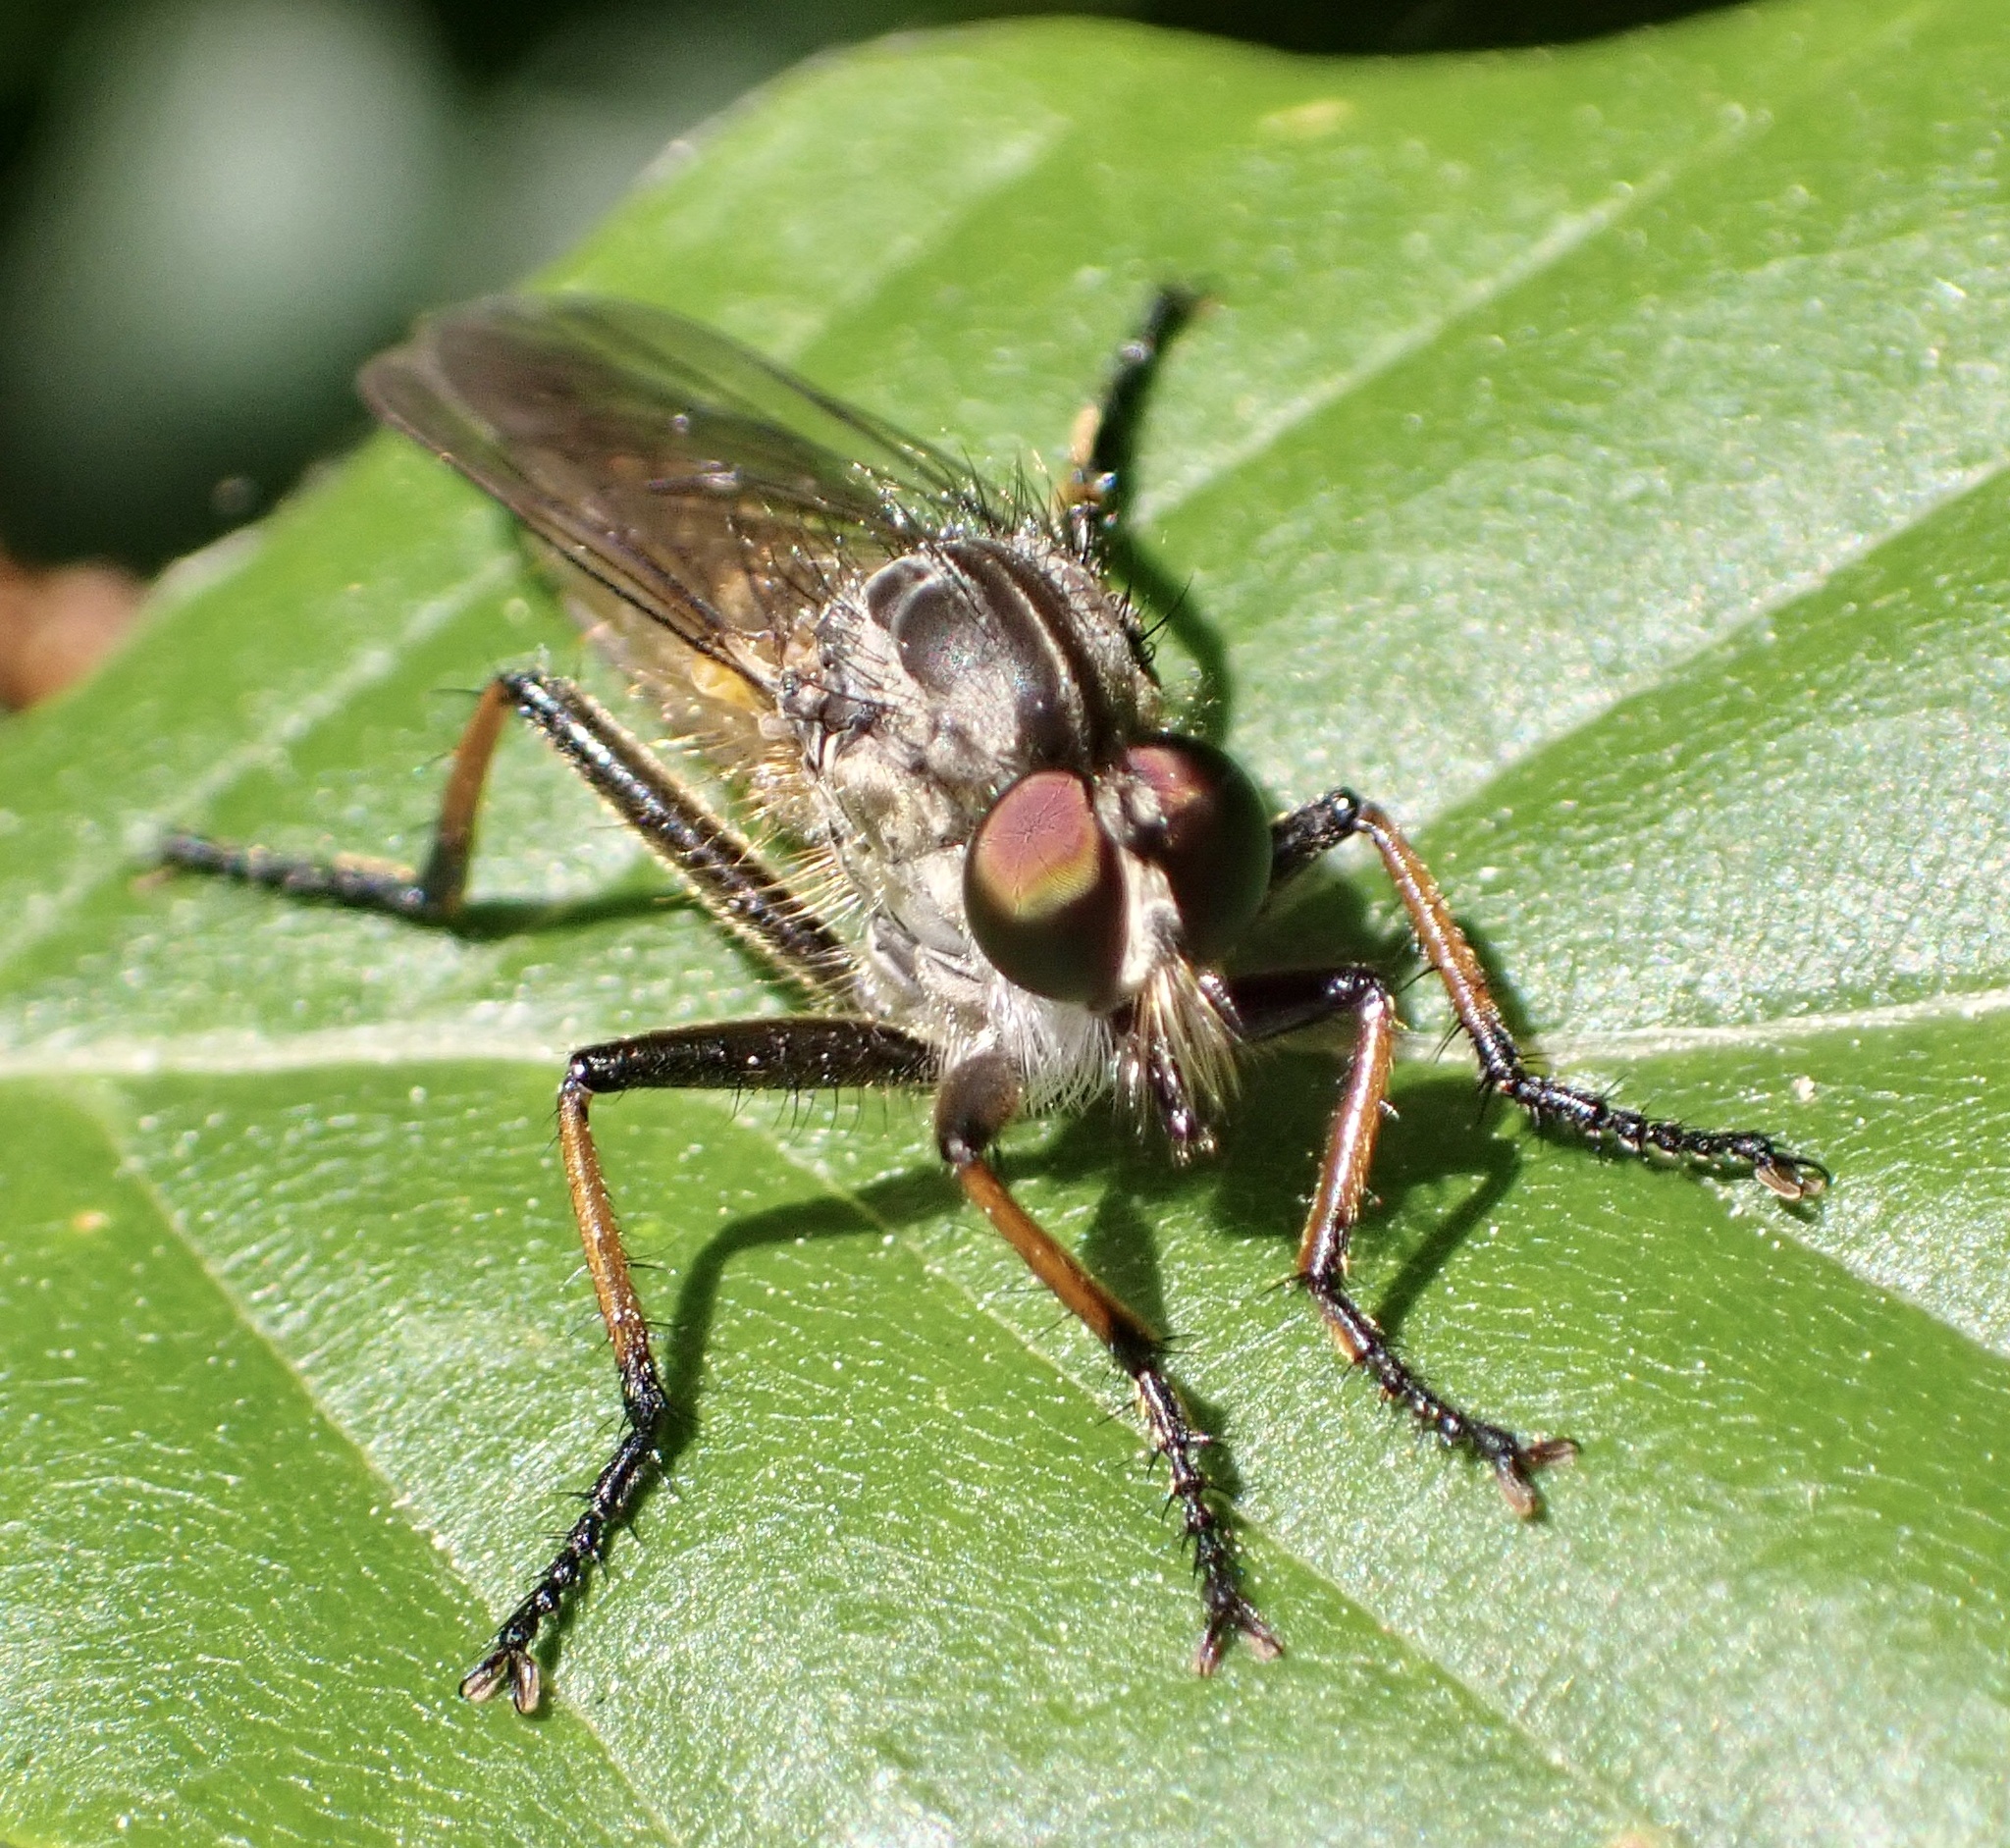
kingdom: Animalia
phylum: Arthropoda
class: Insecta
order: Diptera
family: Asilidae
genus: Neoitamus
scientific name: Neoitamus cyanurus
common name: Common awl robberfly
